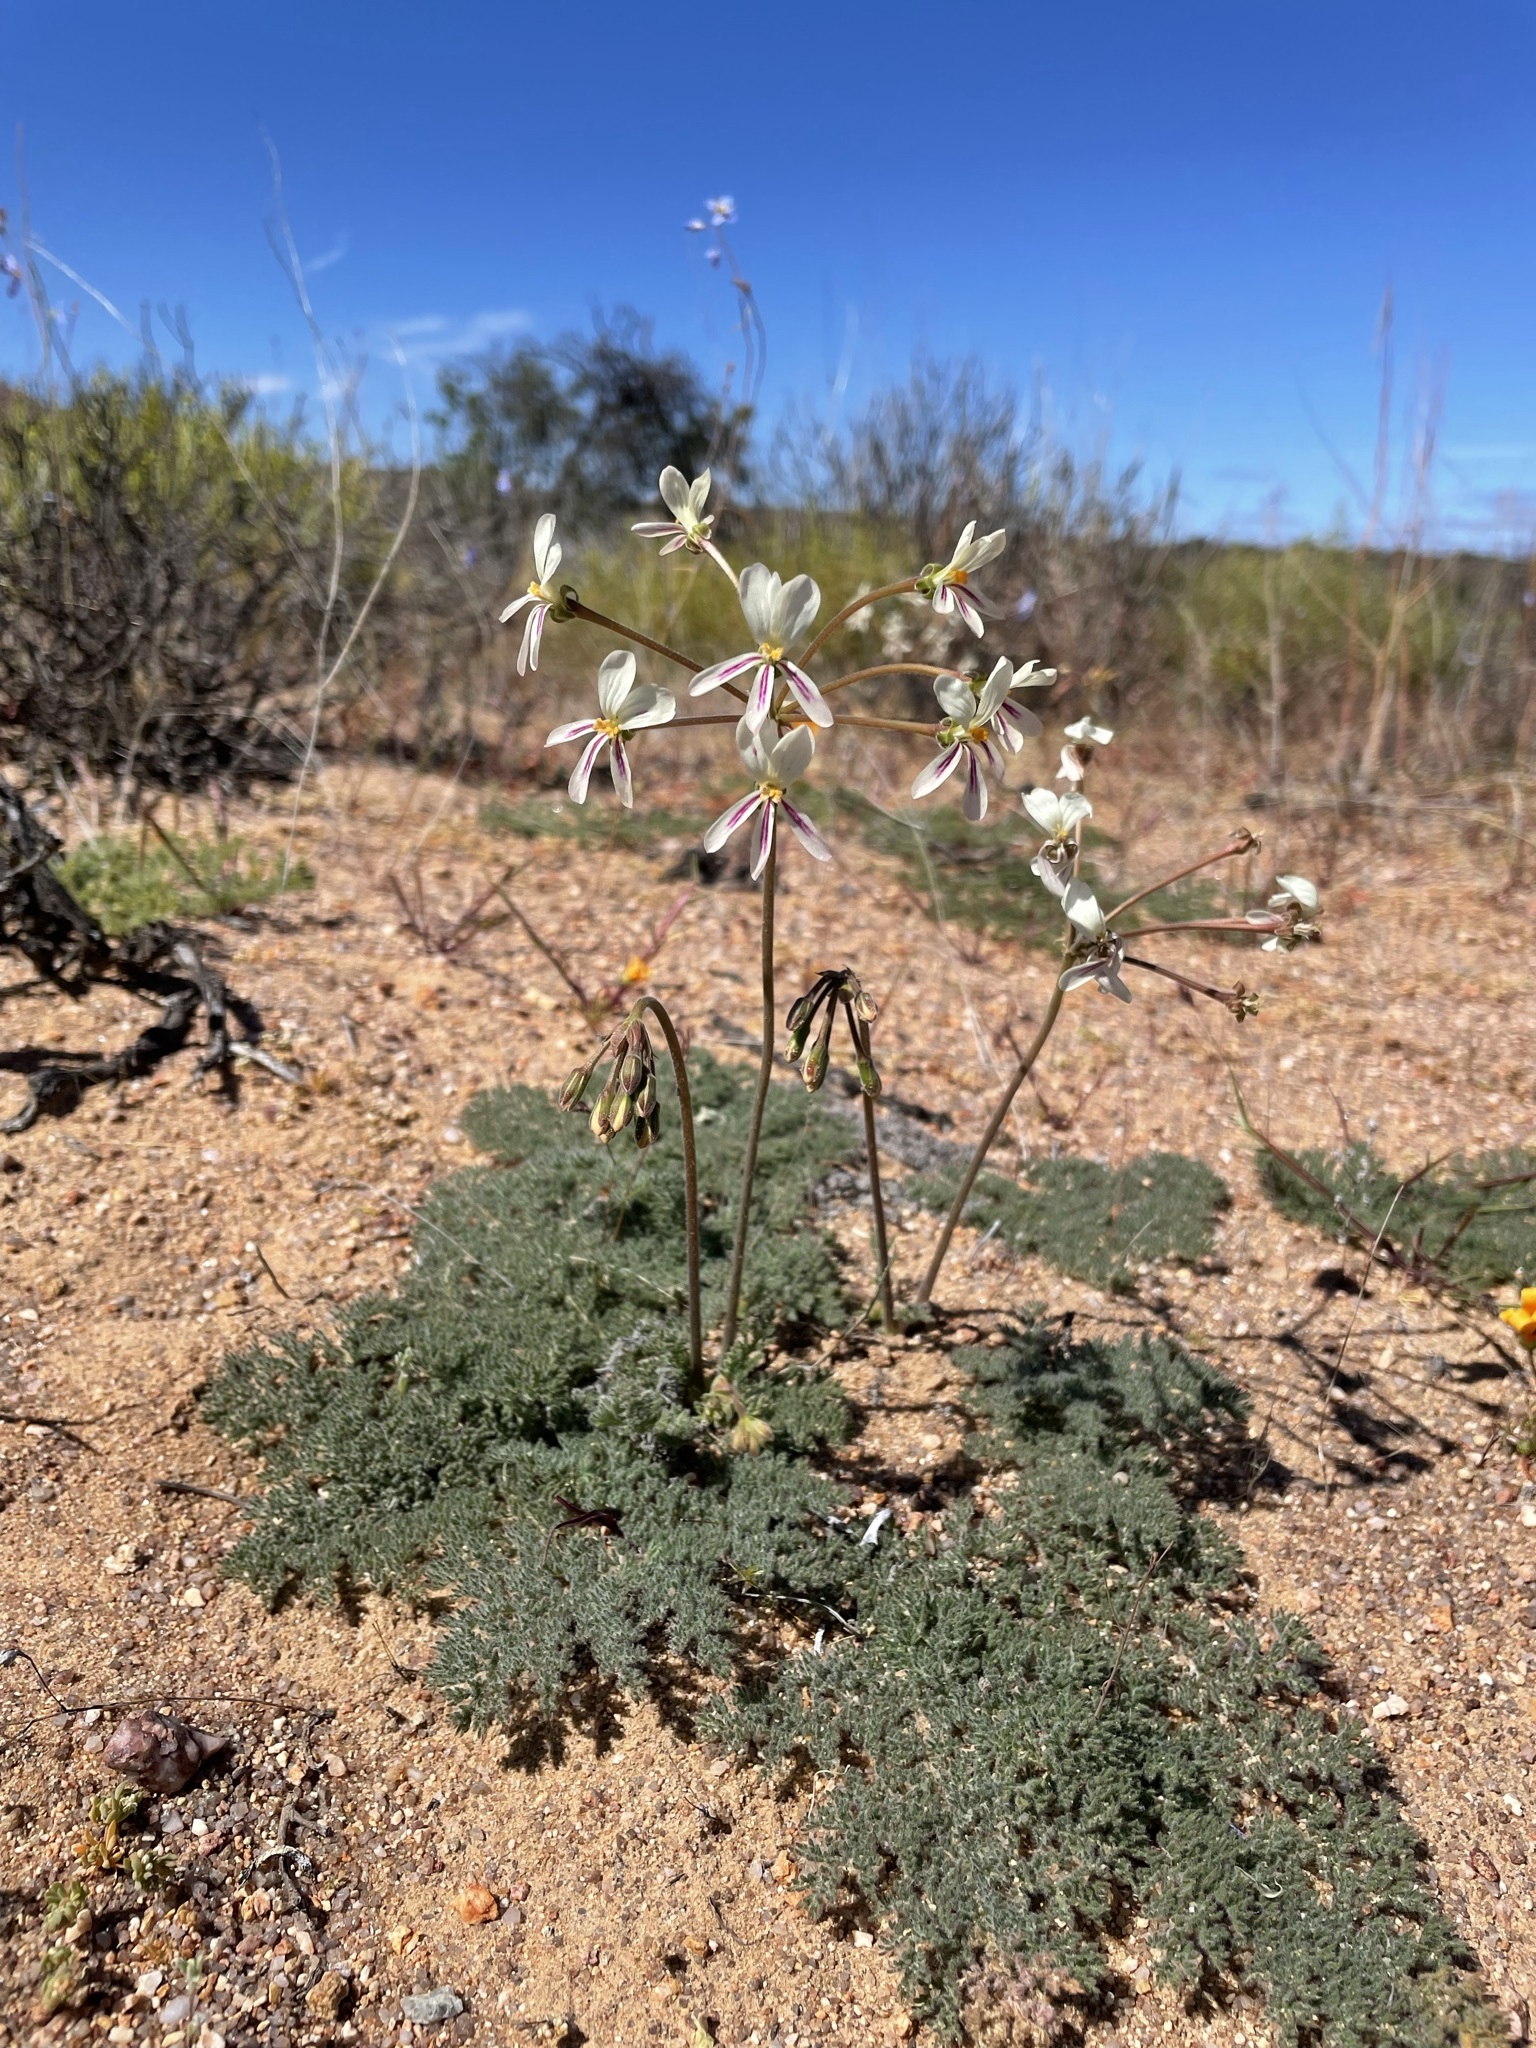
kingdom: Plantae
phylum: Tracheophyta
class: Magnoliopsida
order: Geraniales
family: Geraniaceae
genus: Pelargonium
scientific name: Pelargonium triste
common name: Night-scent pelargonium
